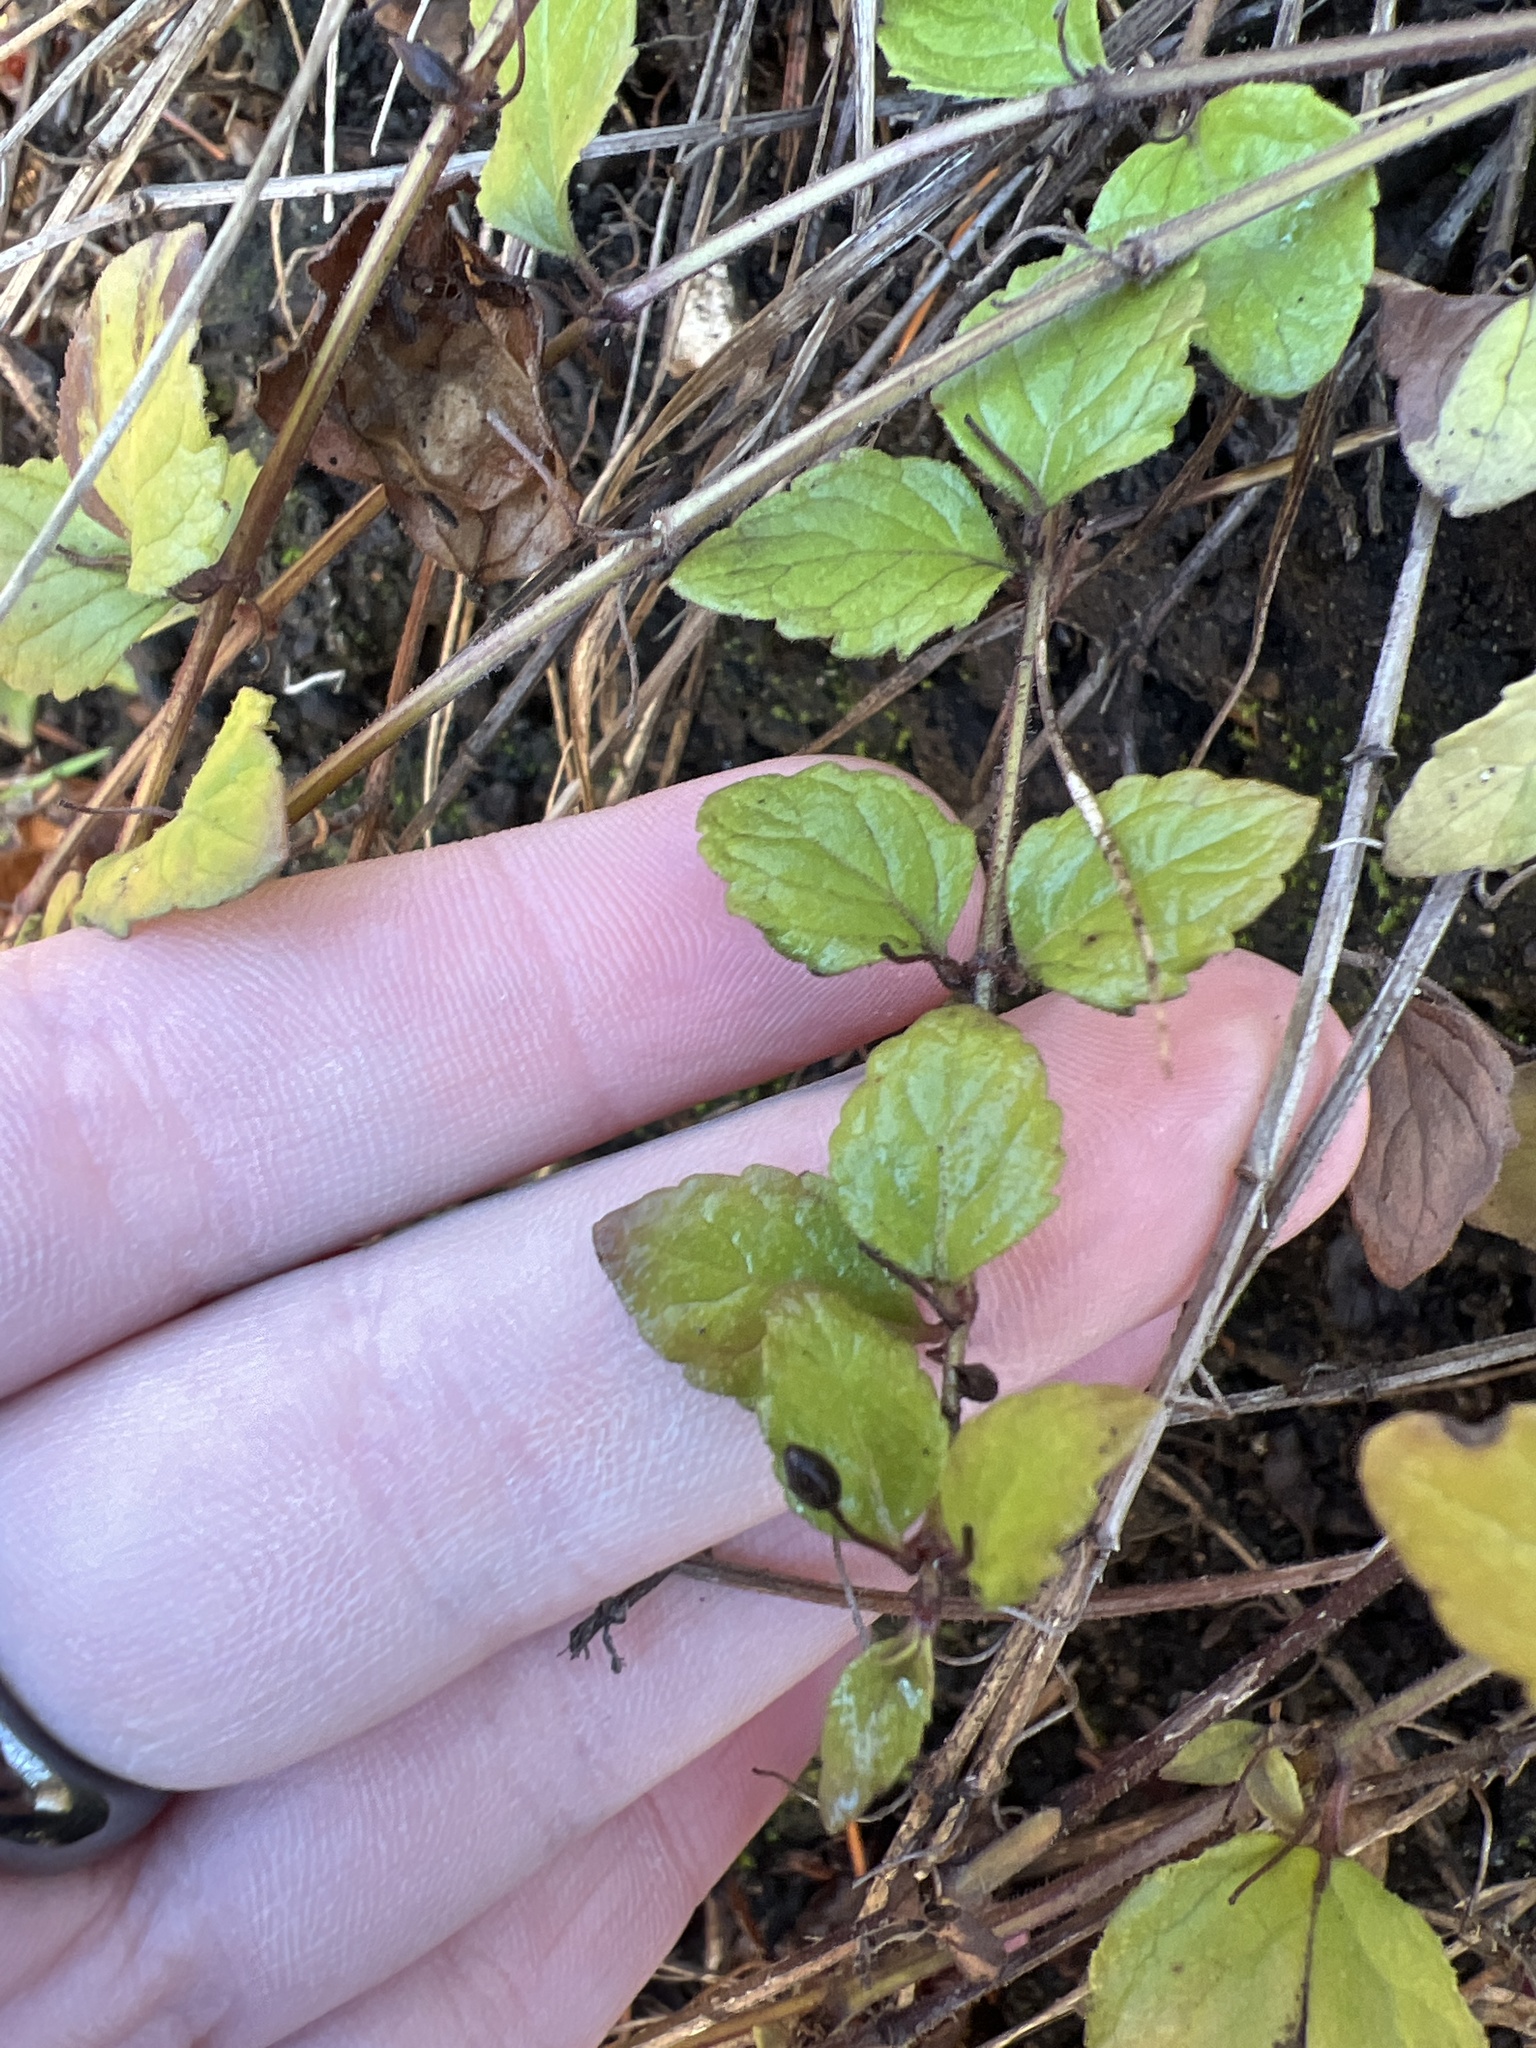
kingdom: Plantae
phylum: Tracheophyta
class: Magnoliopsida
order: Lamiales
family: Lamiaceae
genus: Micromeria
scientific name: Micromeria douglasii
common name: Yerba buena
